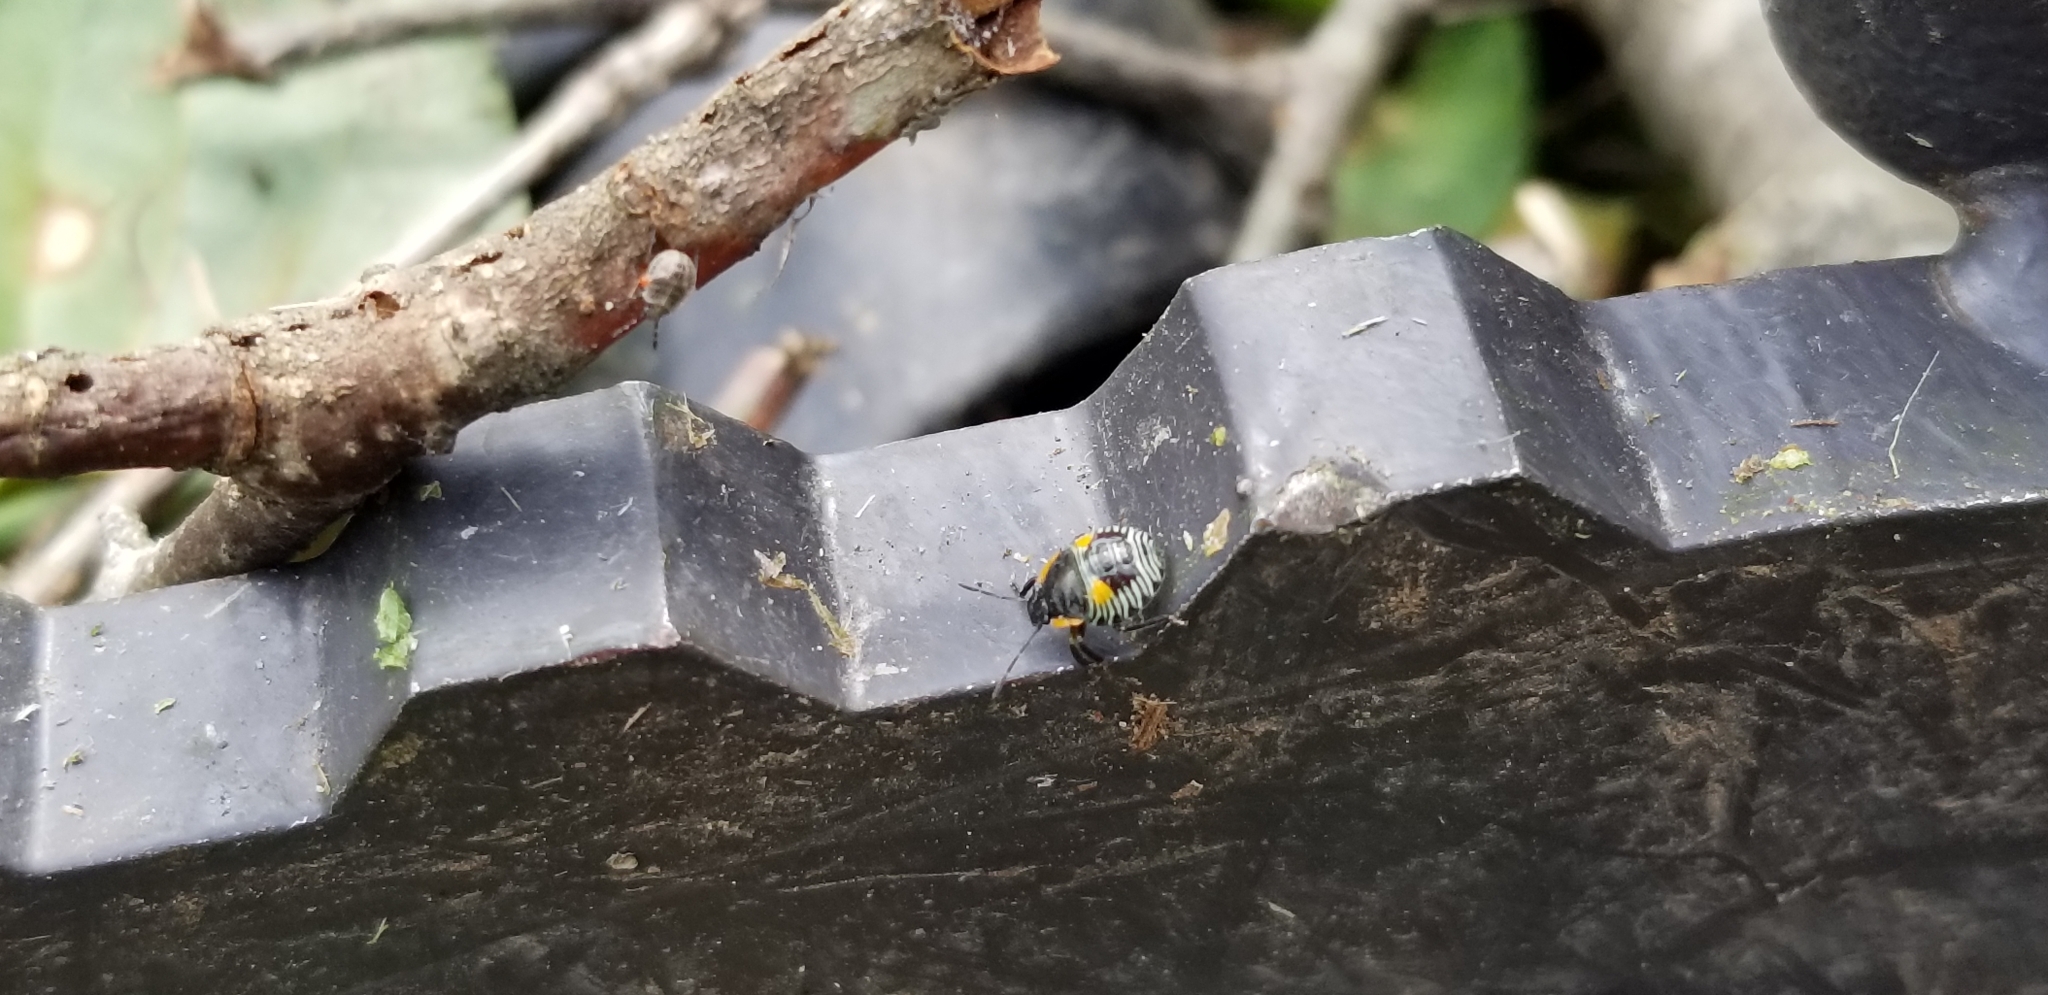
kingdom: Animalia
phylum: Arthropoda
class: Insecta
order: Hemiptera
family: Pentatomidae
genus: Chinavia
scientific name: Chinavia hilaris
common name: Green stink bug
